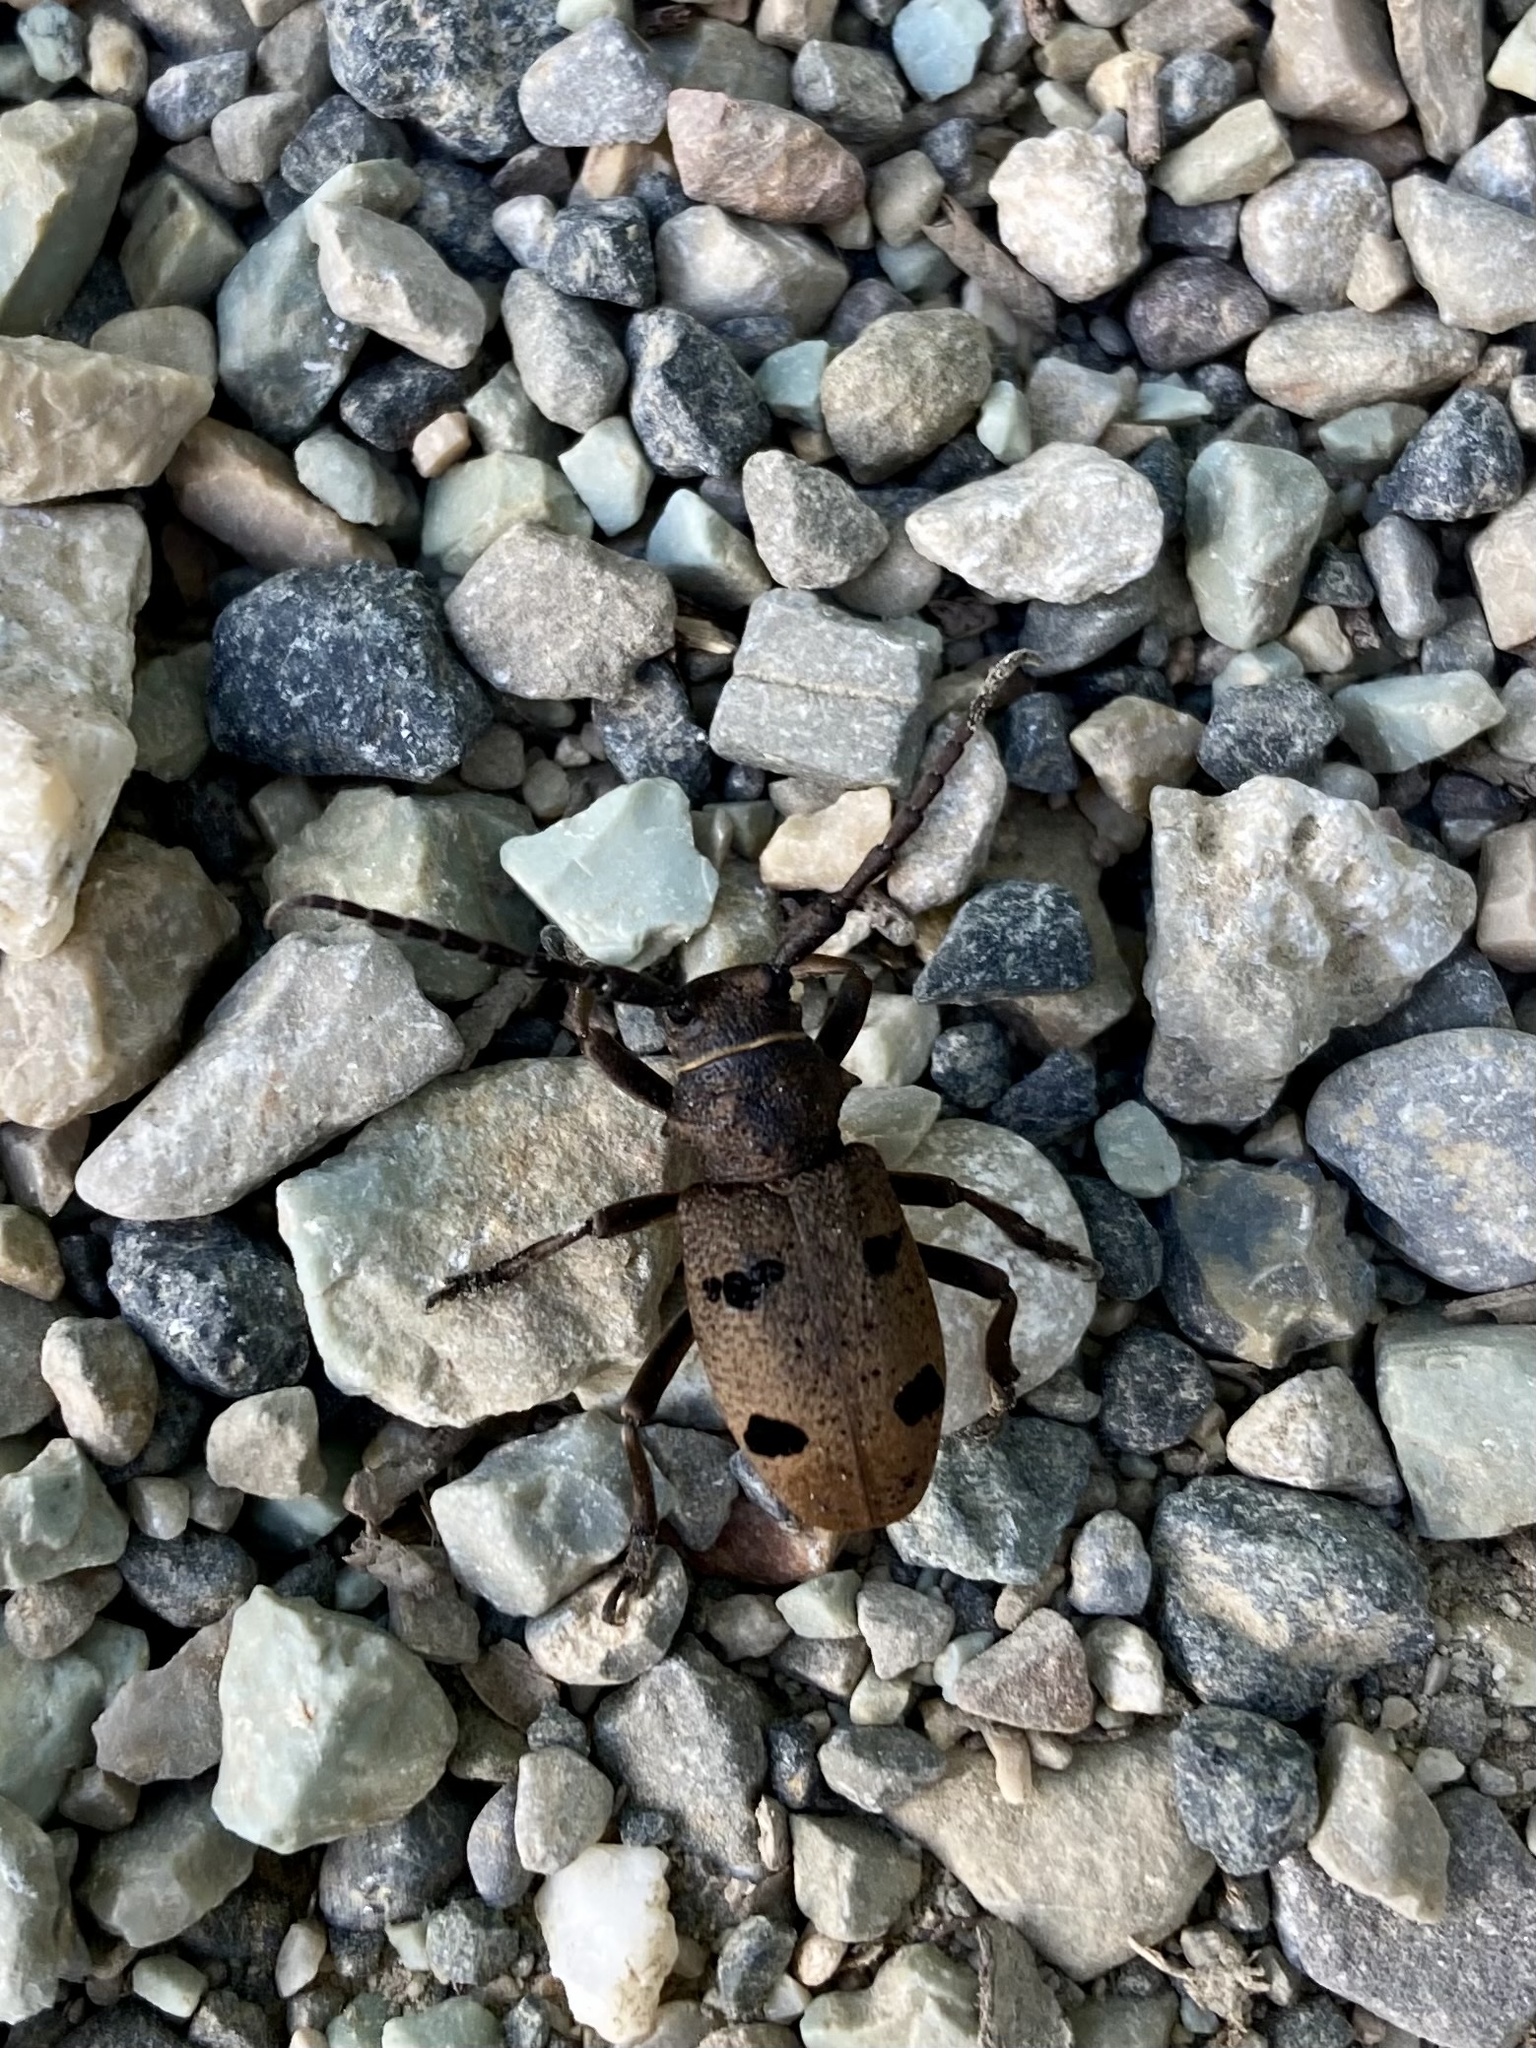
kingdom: Animalia
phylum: Arthropoda
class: Insecta
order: Coleoptera
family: Cerambycidae
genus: Herophila
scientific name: Herophila tristis
